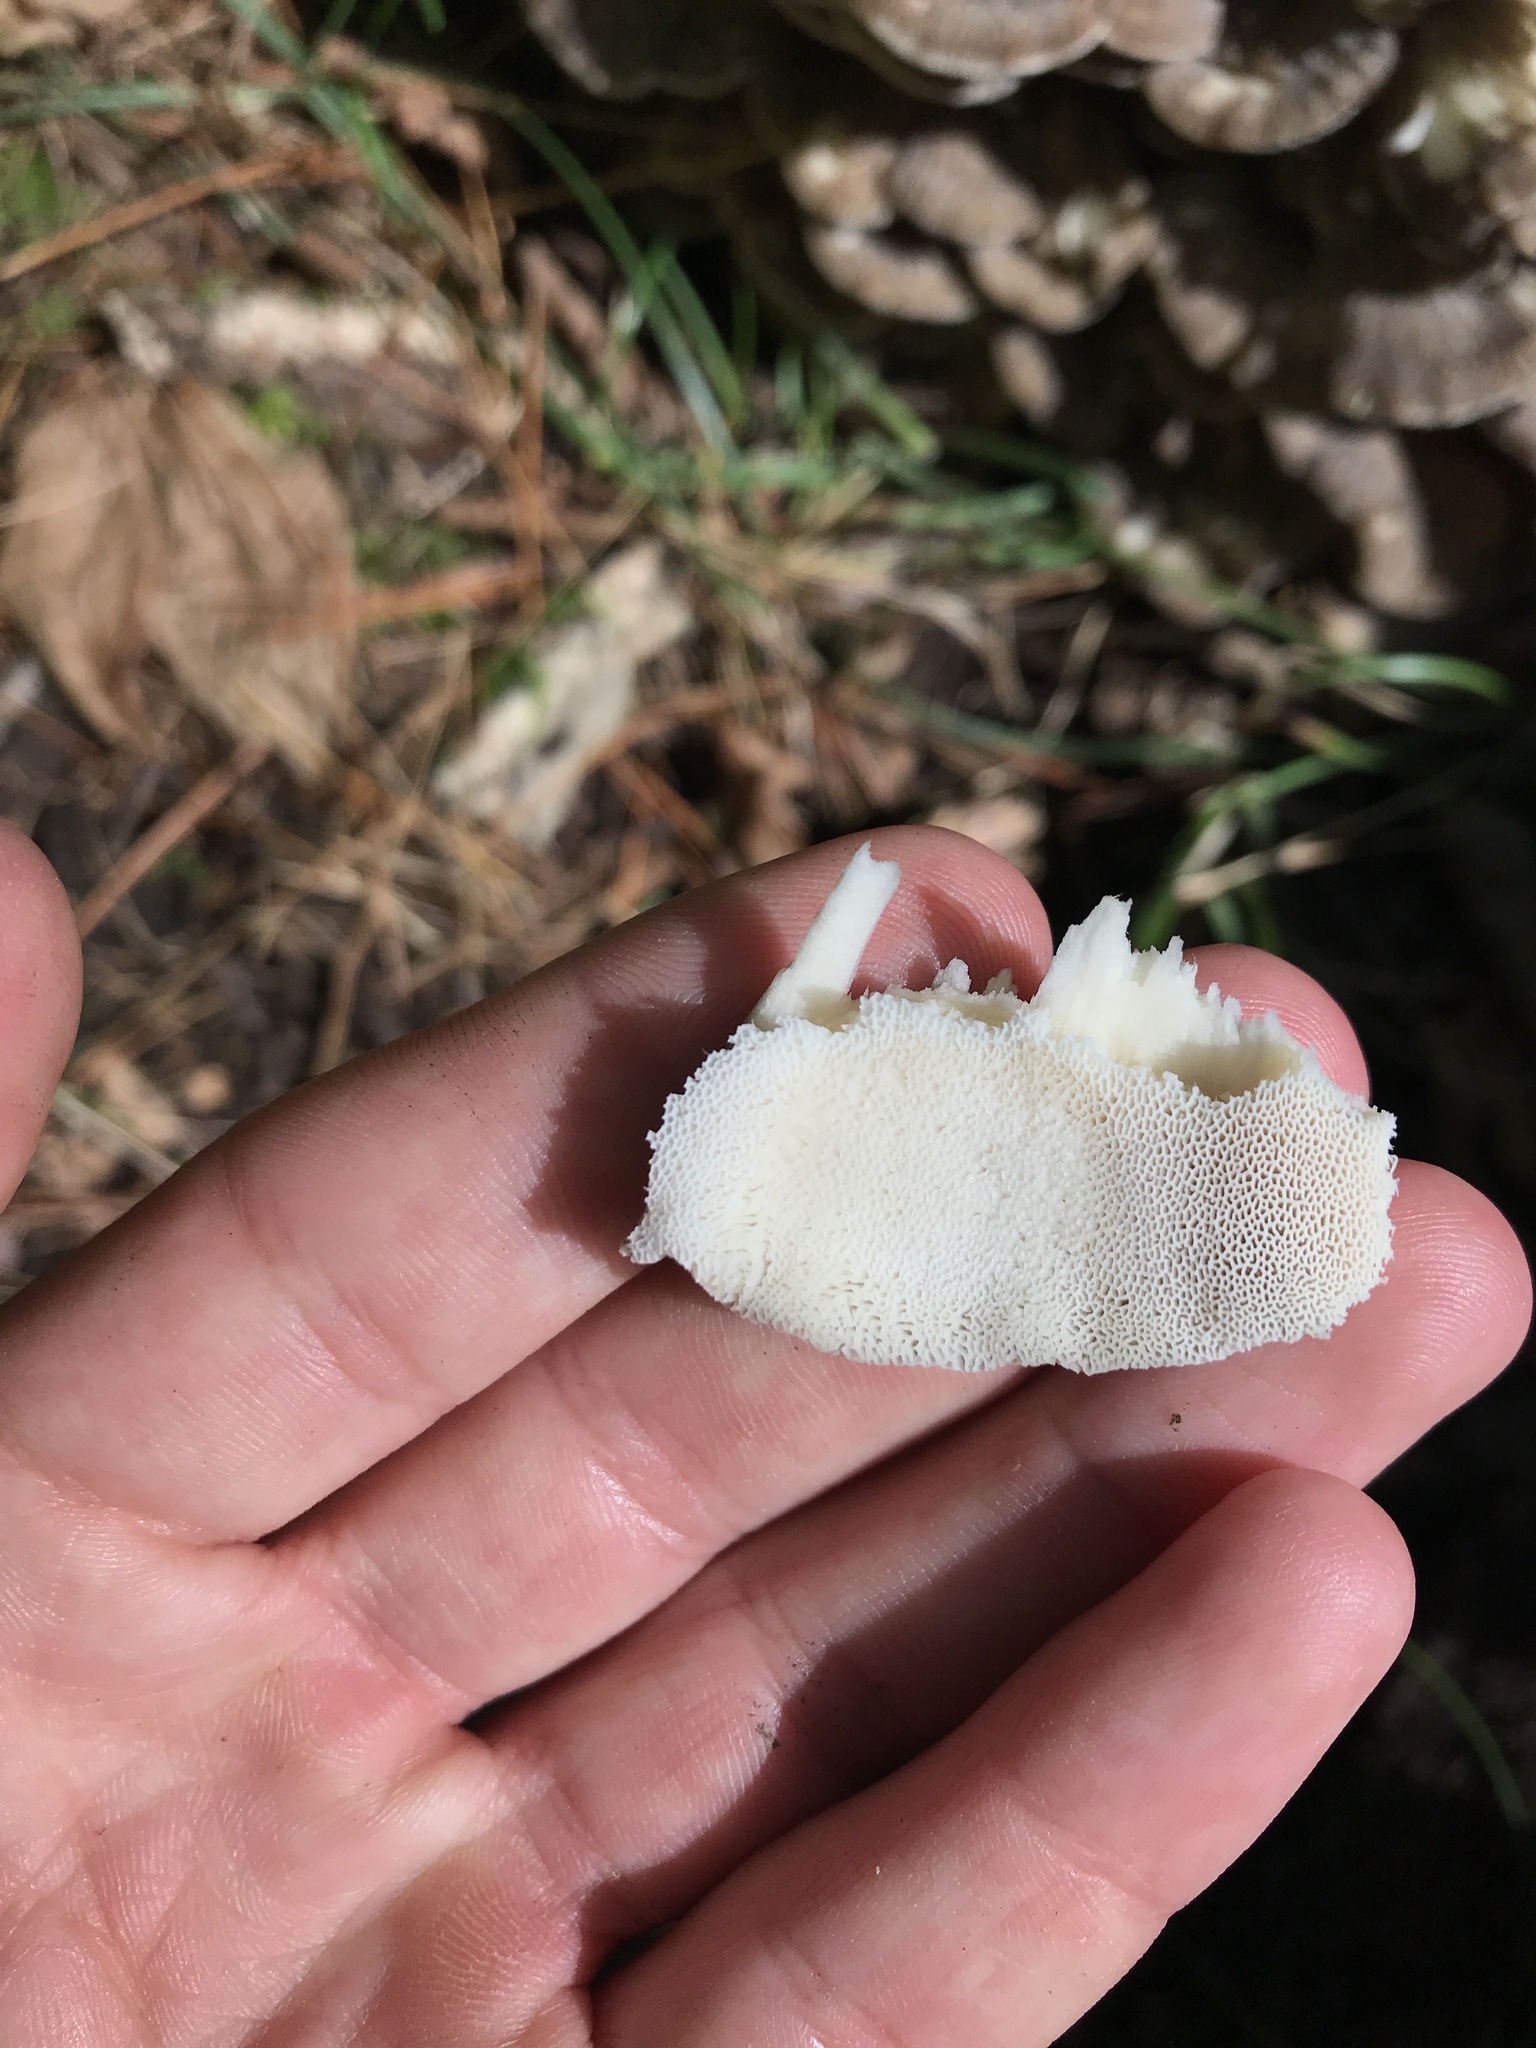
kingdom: Fungi
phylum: Basidiomycota
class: Agaricomycetes
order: Polyporales
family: Grifolaceae
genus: Grifola
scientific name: Grifola frondosa
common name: Hen of the woods
